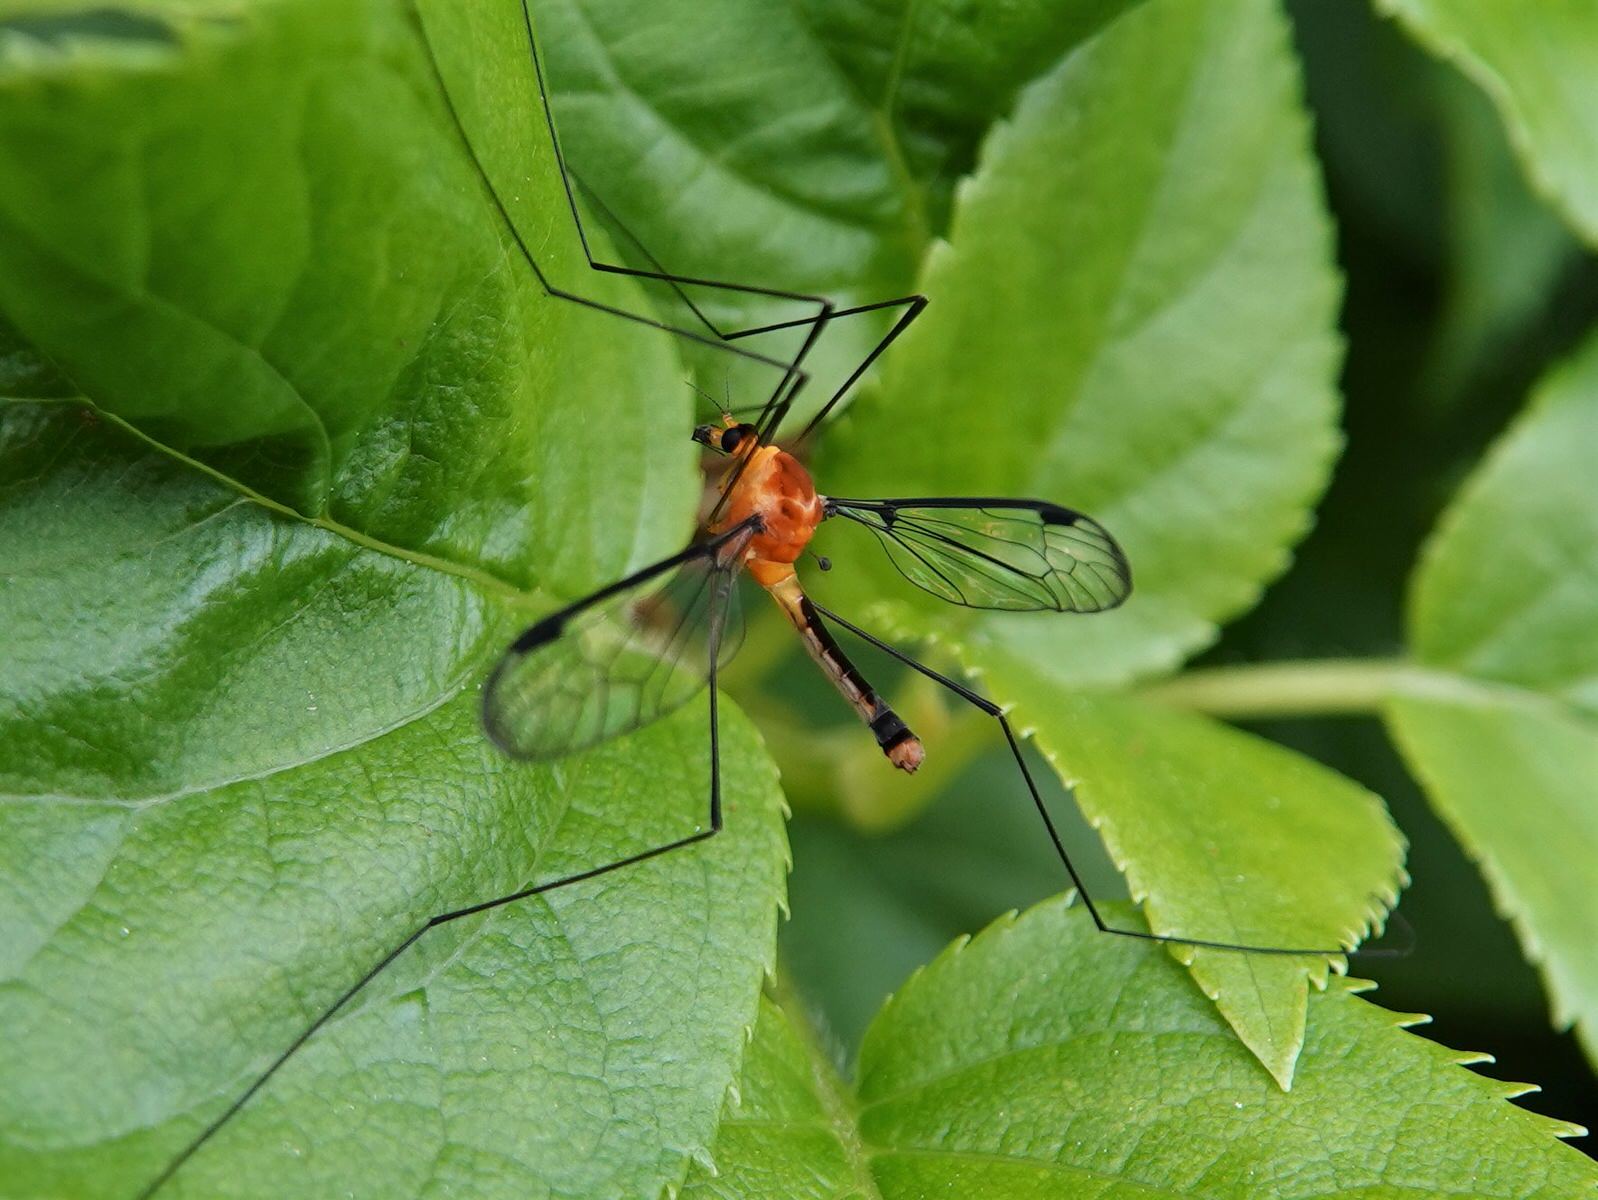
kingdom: Animalia
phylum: Arthropoda
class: Insecta
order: Diptera
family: Tipulidae
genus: Aurotipula
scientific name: Aurotipula
